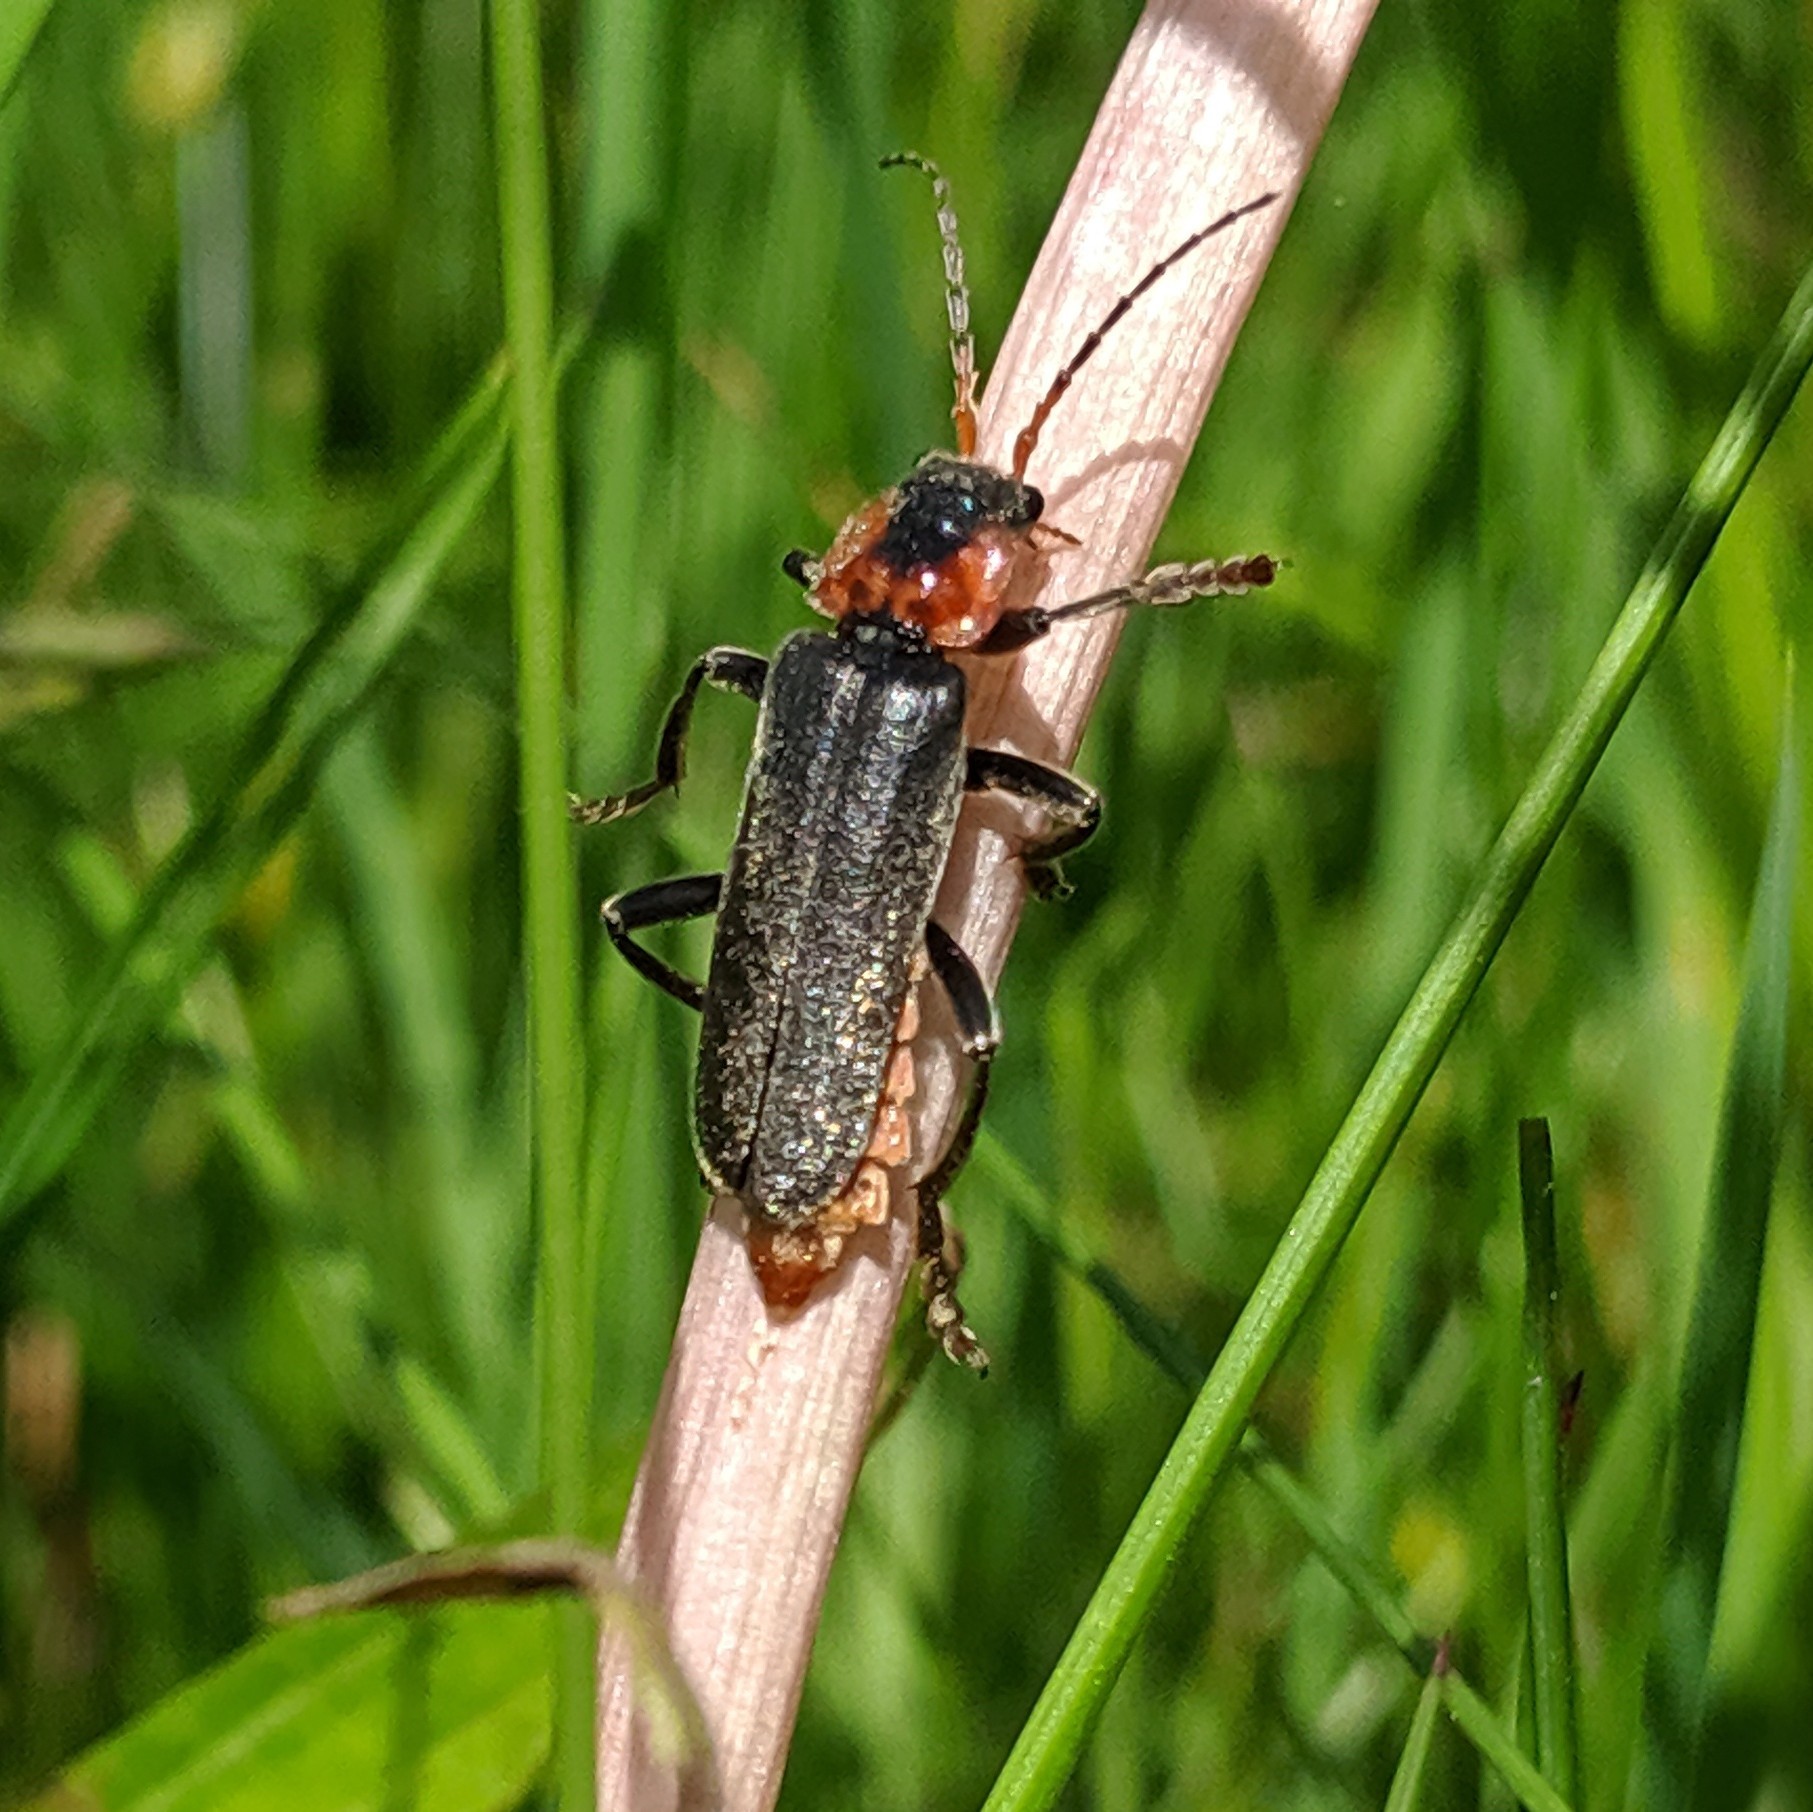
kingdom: Animalia
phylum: Arthropoda
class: Insecta
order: Coleoptera
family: Cantharidae
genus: Cantharis
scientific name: Cantharis fusca
